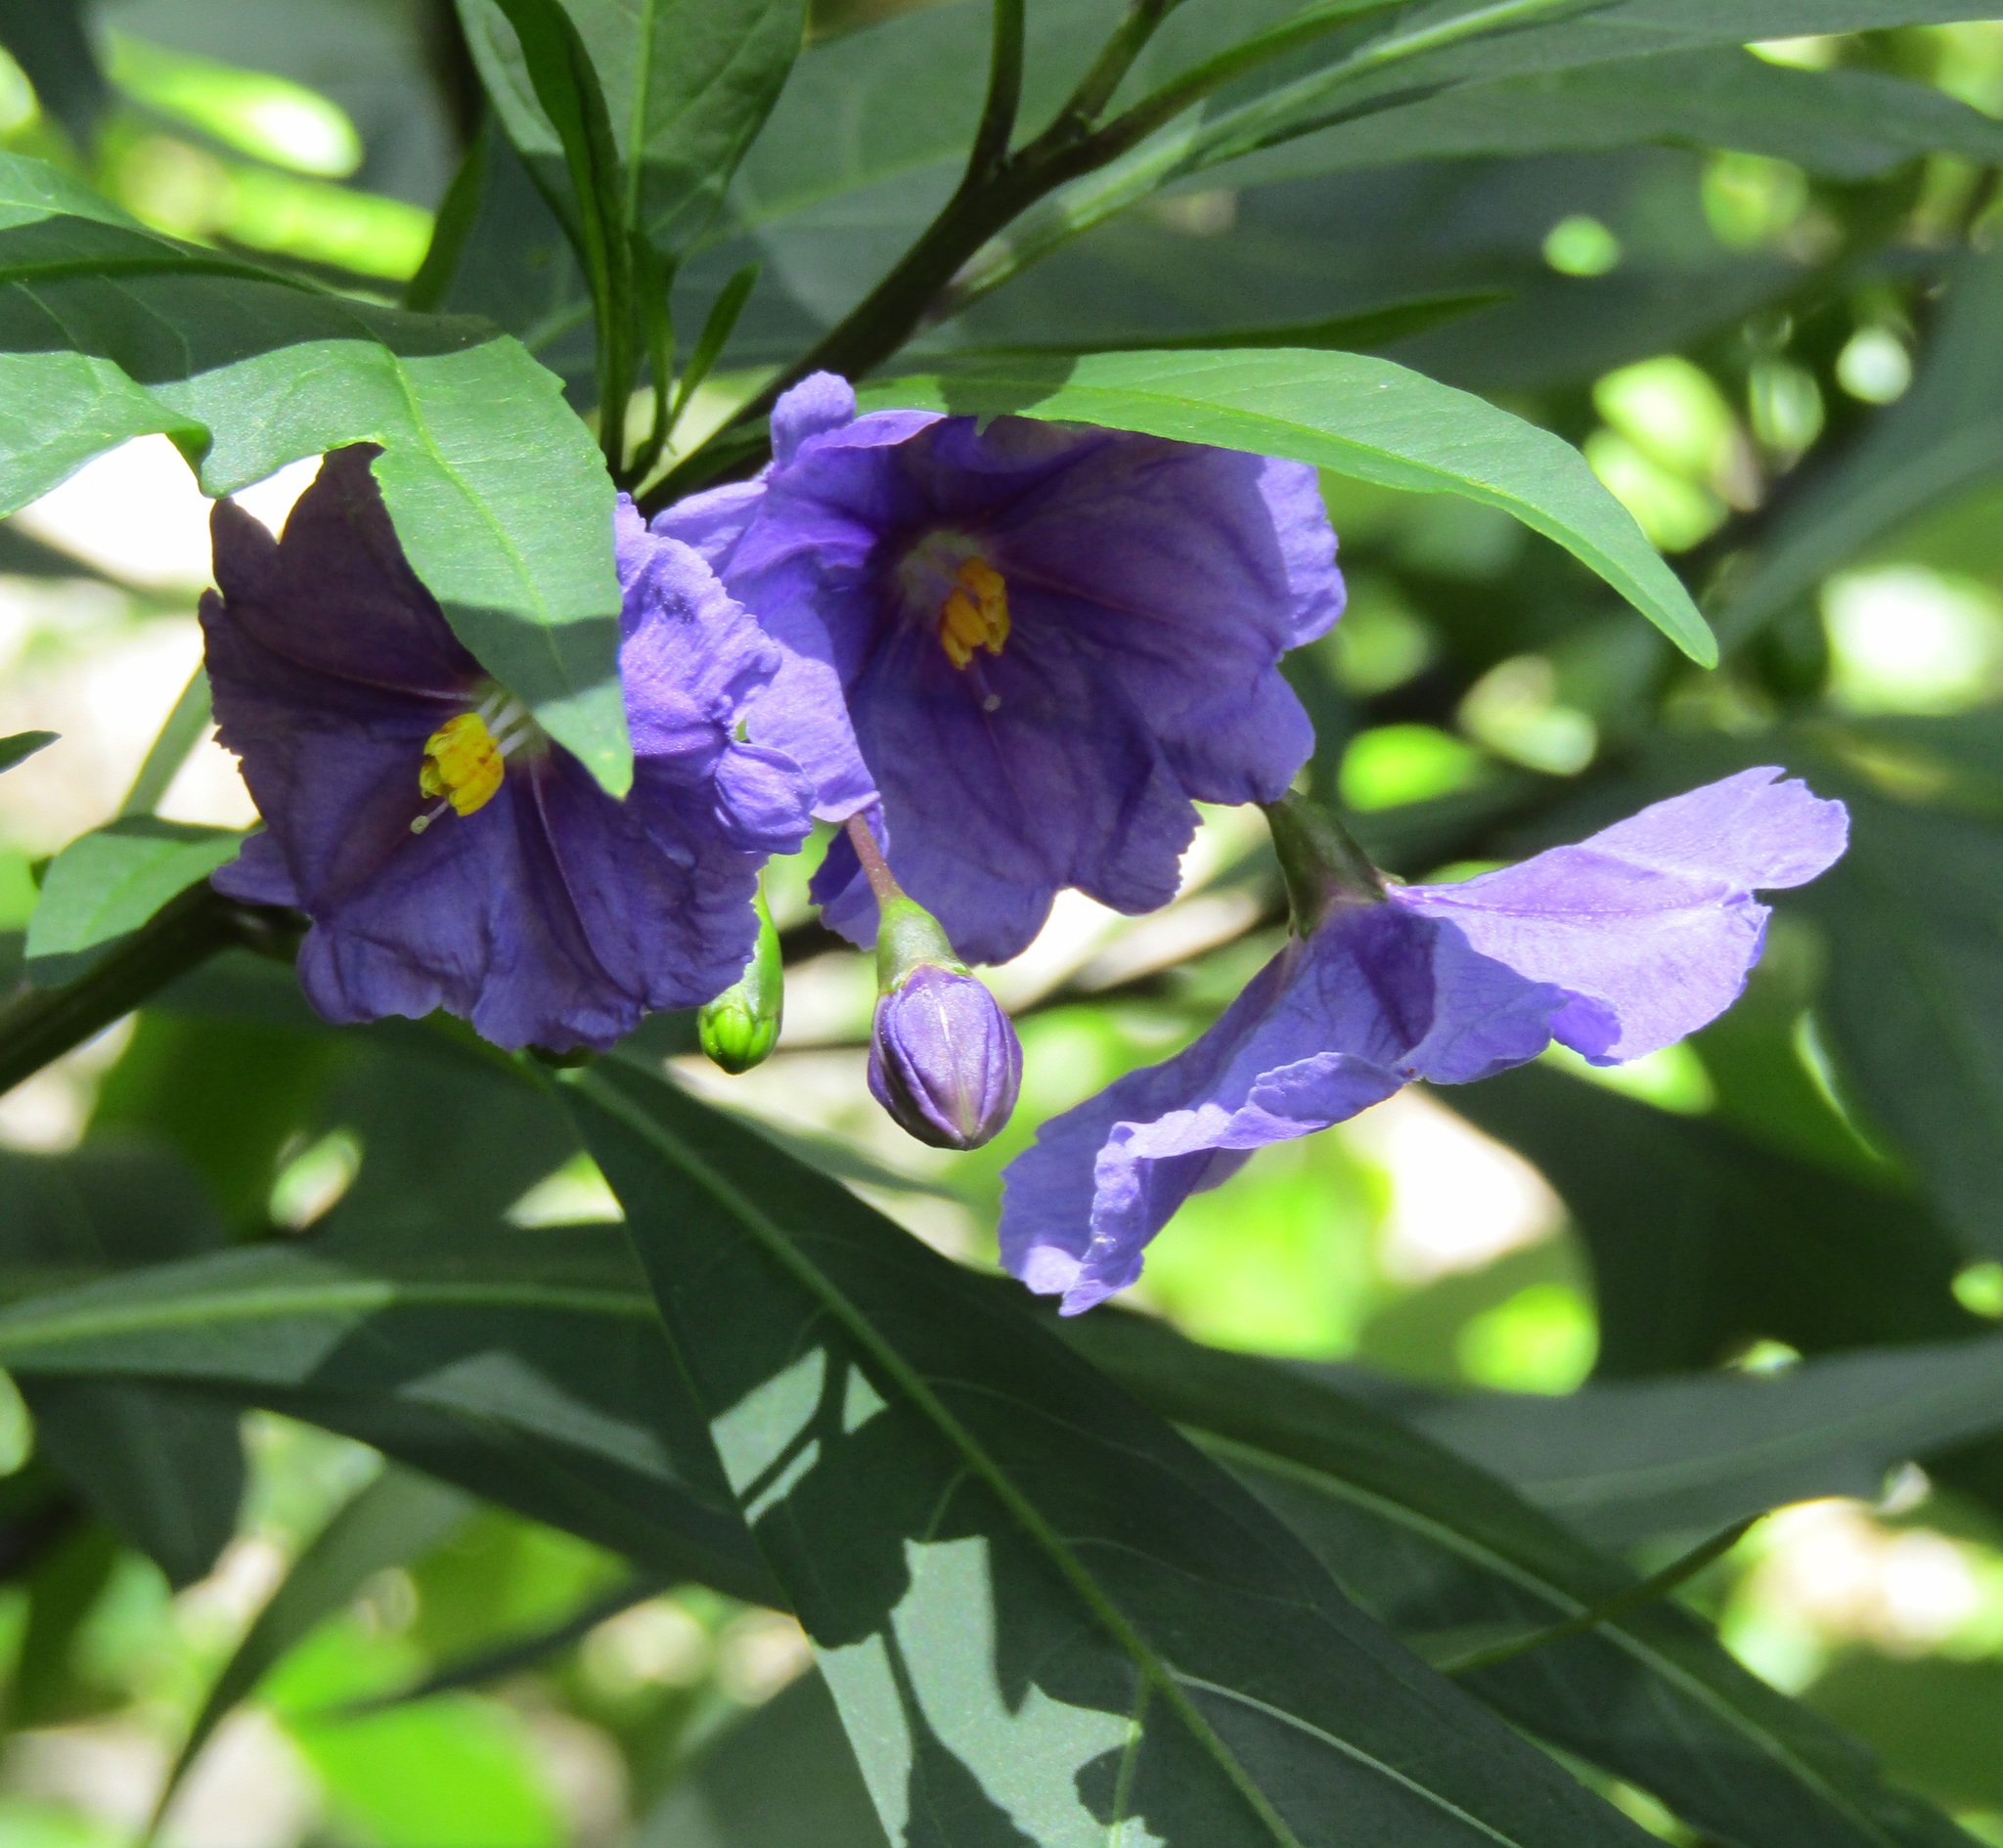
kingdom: Plantae
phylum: Tracheophyta
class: Magnoliopsida
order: Solanales
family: Solanaceae
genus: Solanum
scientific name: Solanum laciniatum
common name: Kangaroo-apple
